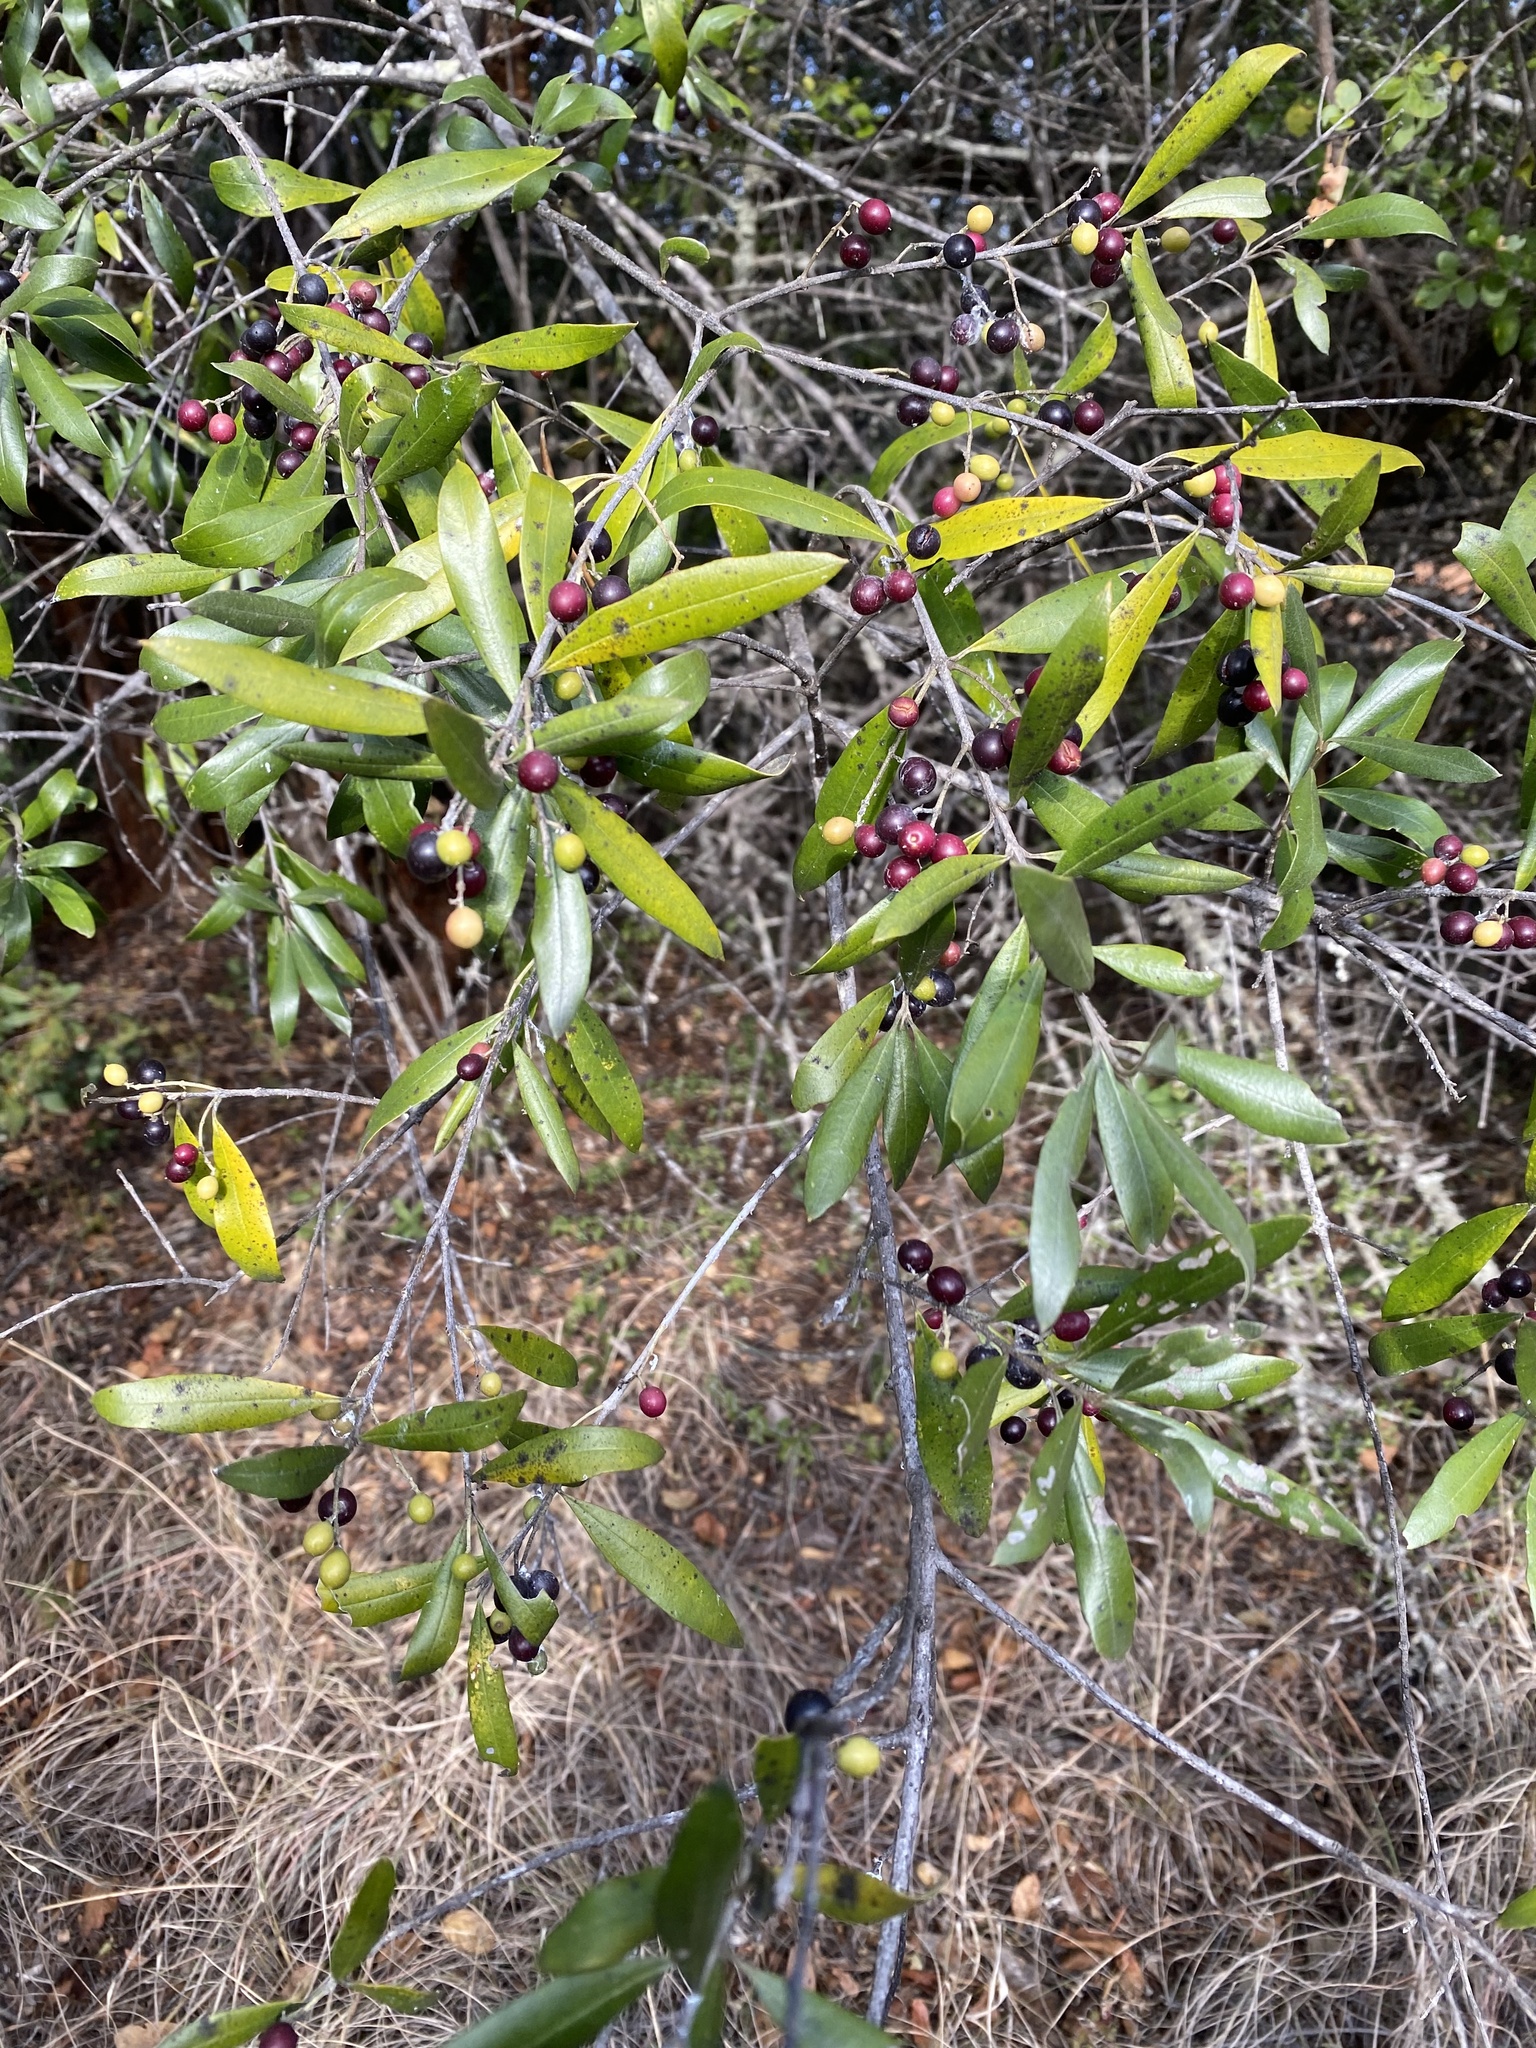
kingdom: Plantae
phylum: Tracheophyta
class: Magnoliopsida
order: Lamiales
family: Oleaceae
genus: Olea
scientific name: Olea europaea
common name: Olive
